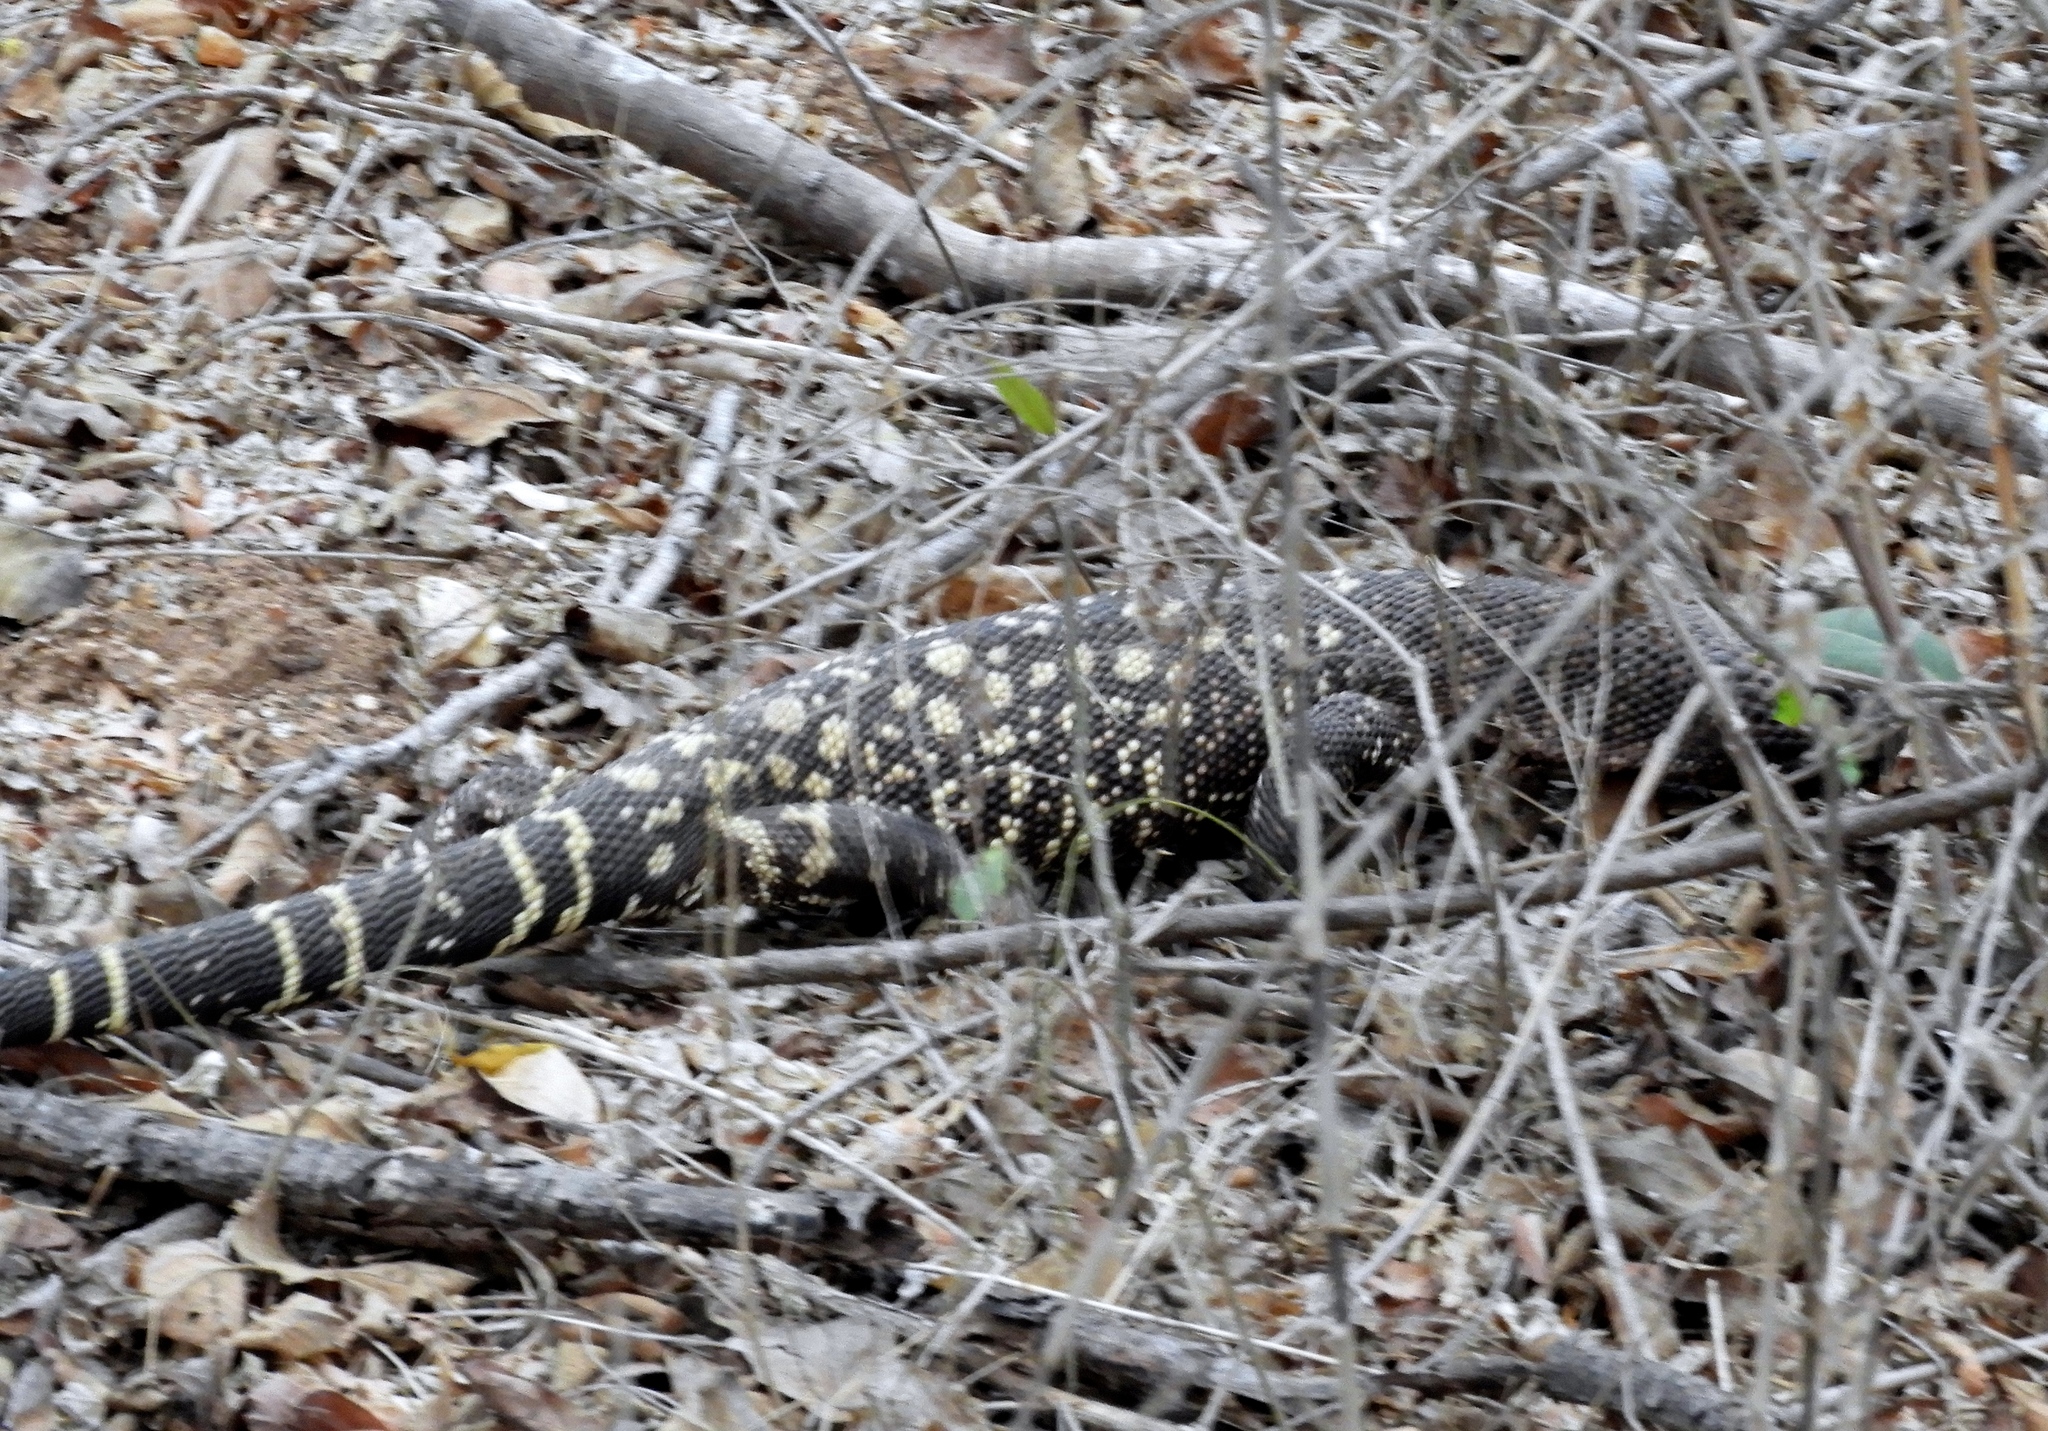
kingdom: Animalia
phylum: Chordata
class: Squamata
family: Helodermatidae
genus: Heloderma
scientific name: Heloderma horridum
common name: Mexican beaded lizard
